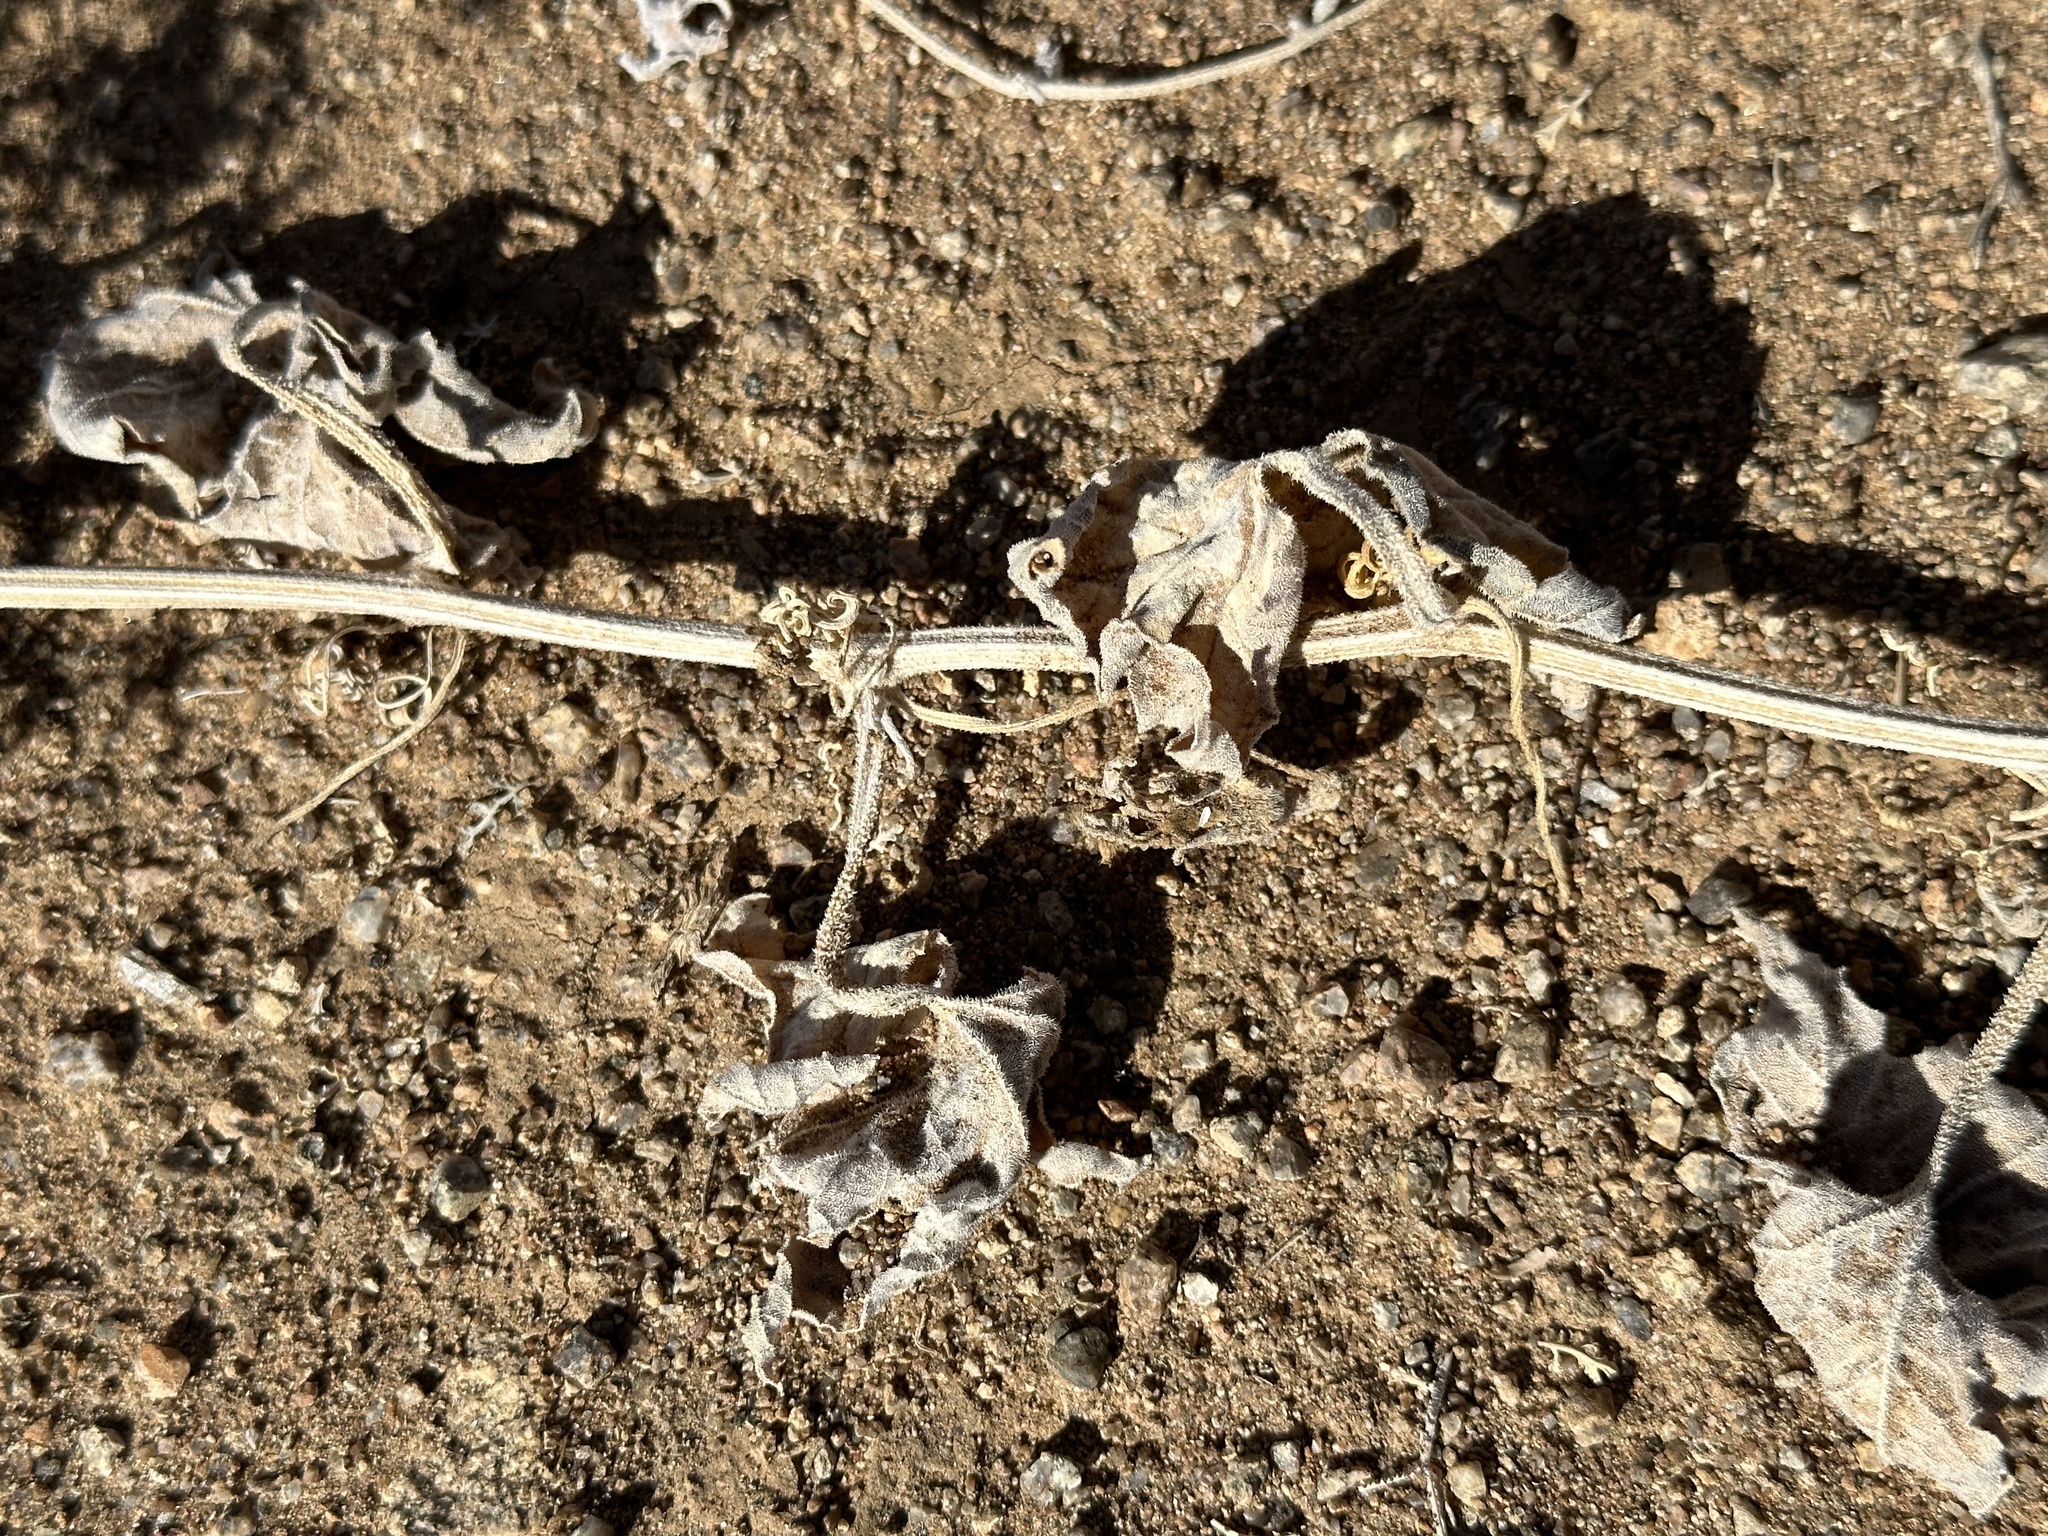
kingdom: Plantae
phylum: Tracheophyta
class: Magnoliopsida
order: Cucurbitales
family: Cucurbitaceae
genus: Cucurbita
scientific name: Cucurbita palmata
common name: Coyote-melon
